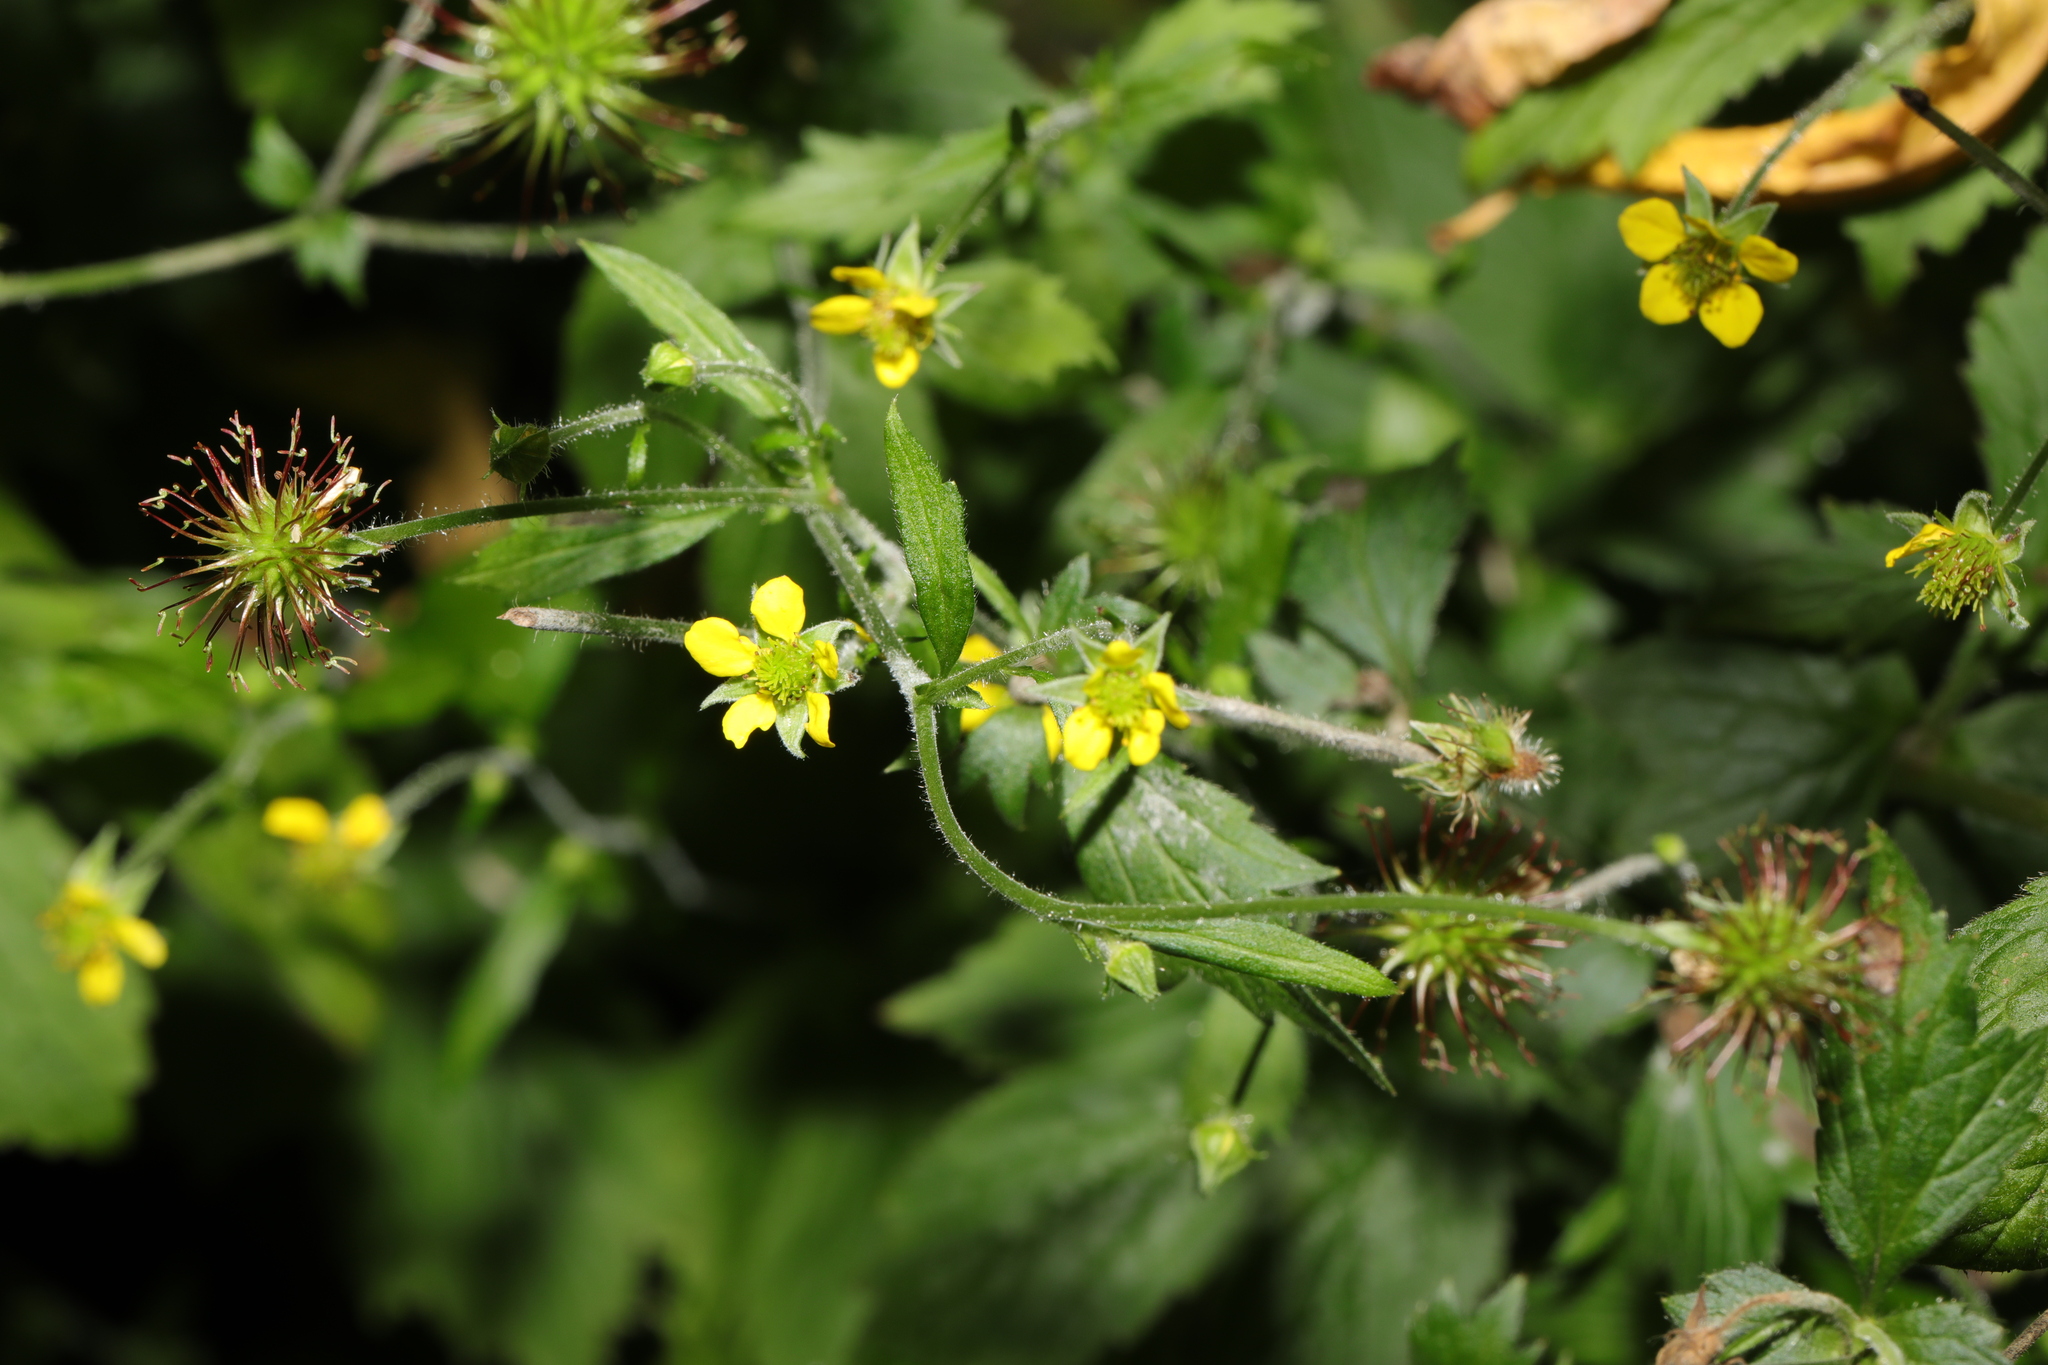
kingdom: Plantae
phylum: Tracheophyta
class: Magnoliopsida
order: Rosales
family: Rosaceae
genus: Geum
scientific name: Geum urbanum
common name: Wood avens
